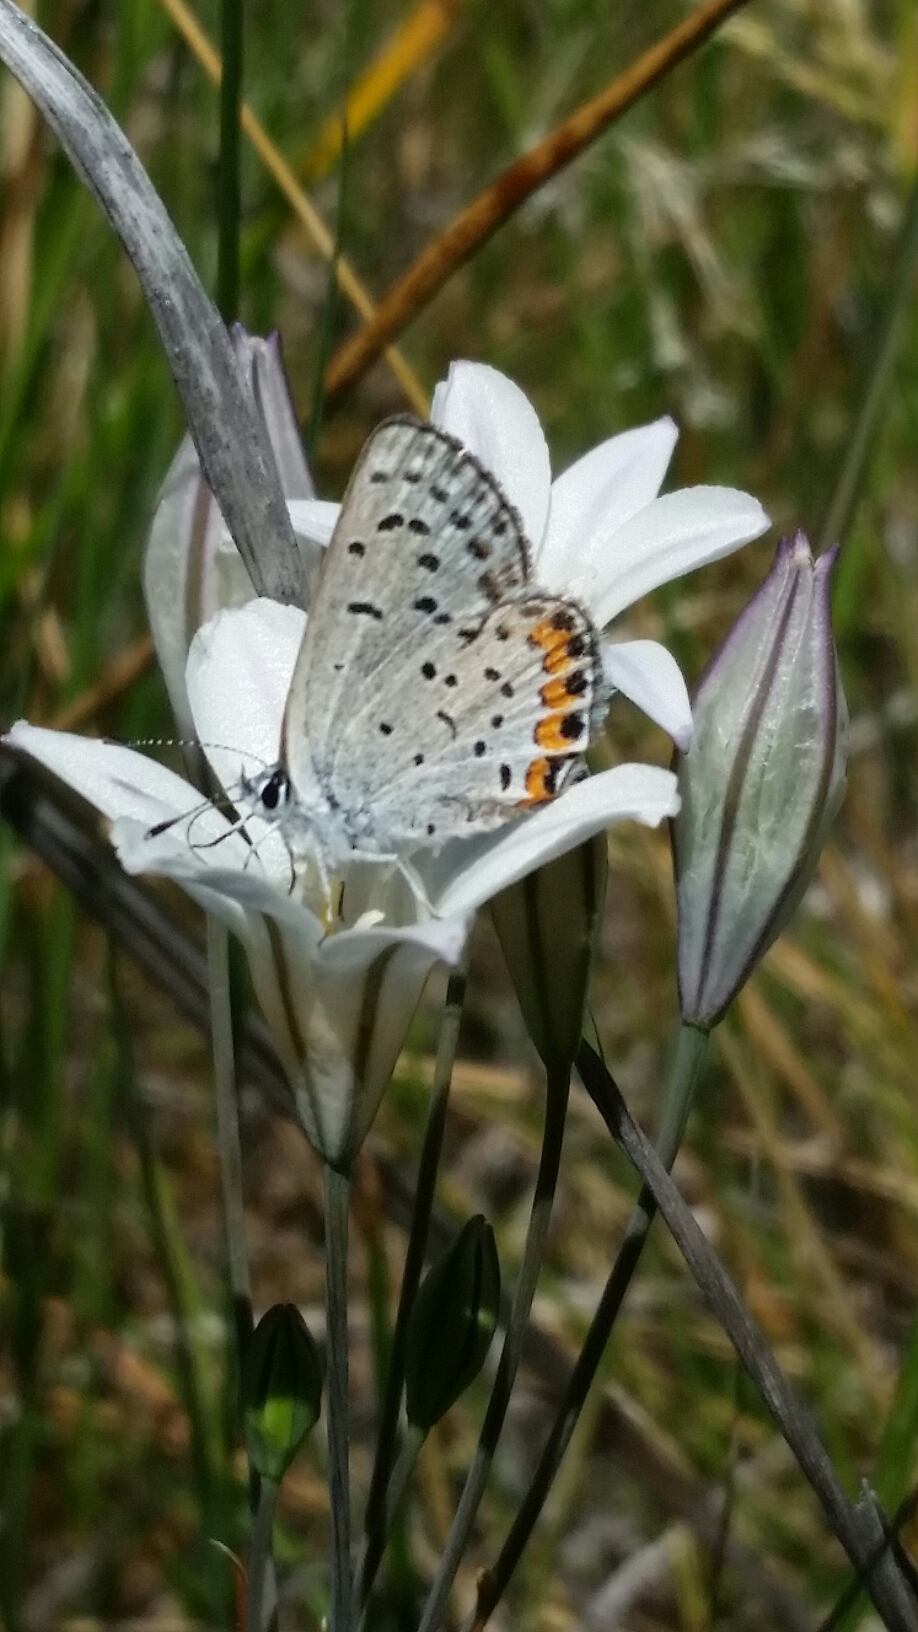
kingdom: Animalia
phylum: Arthropoda
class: Insecta
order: Lepidoptera
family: Lycaenidae
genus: Icaricia
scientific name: Icaricia acmon
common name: Acmon blue
